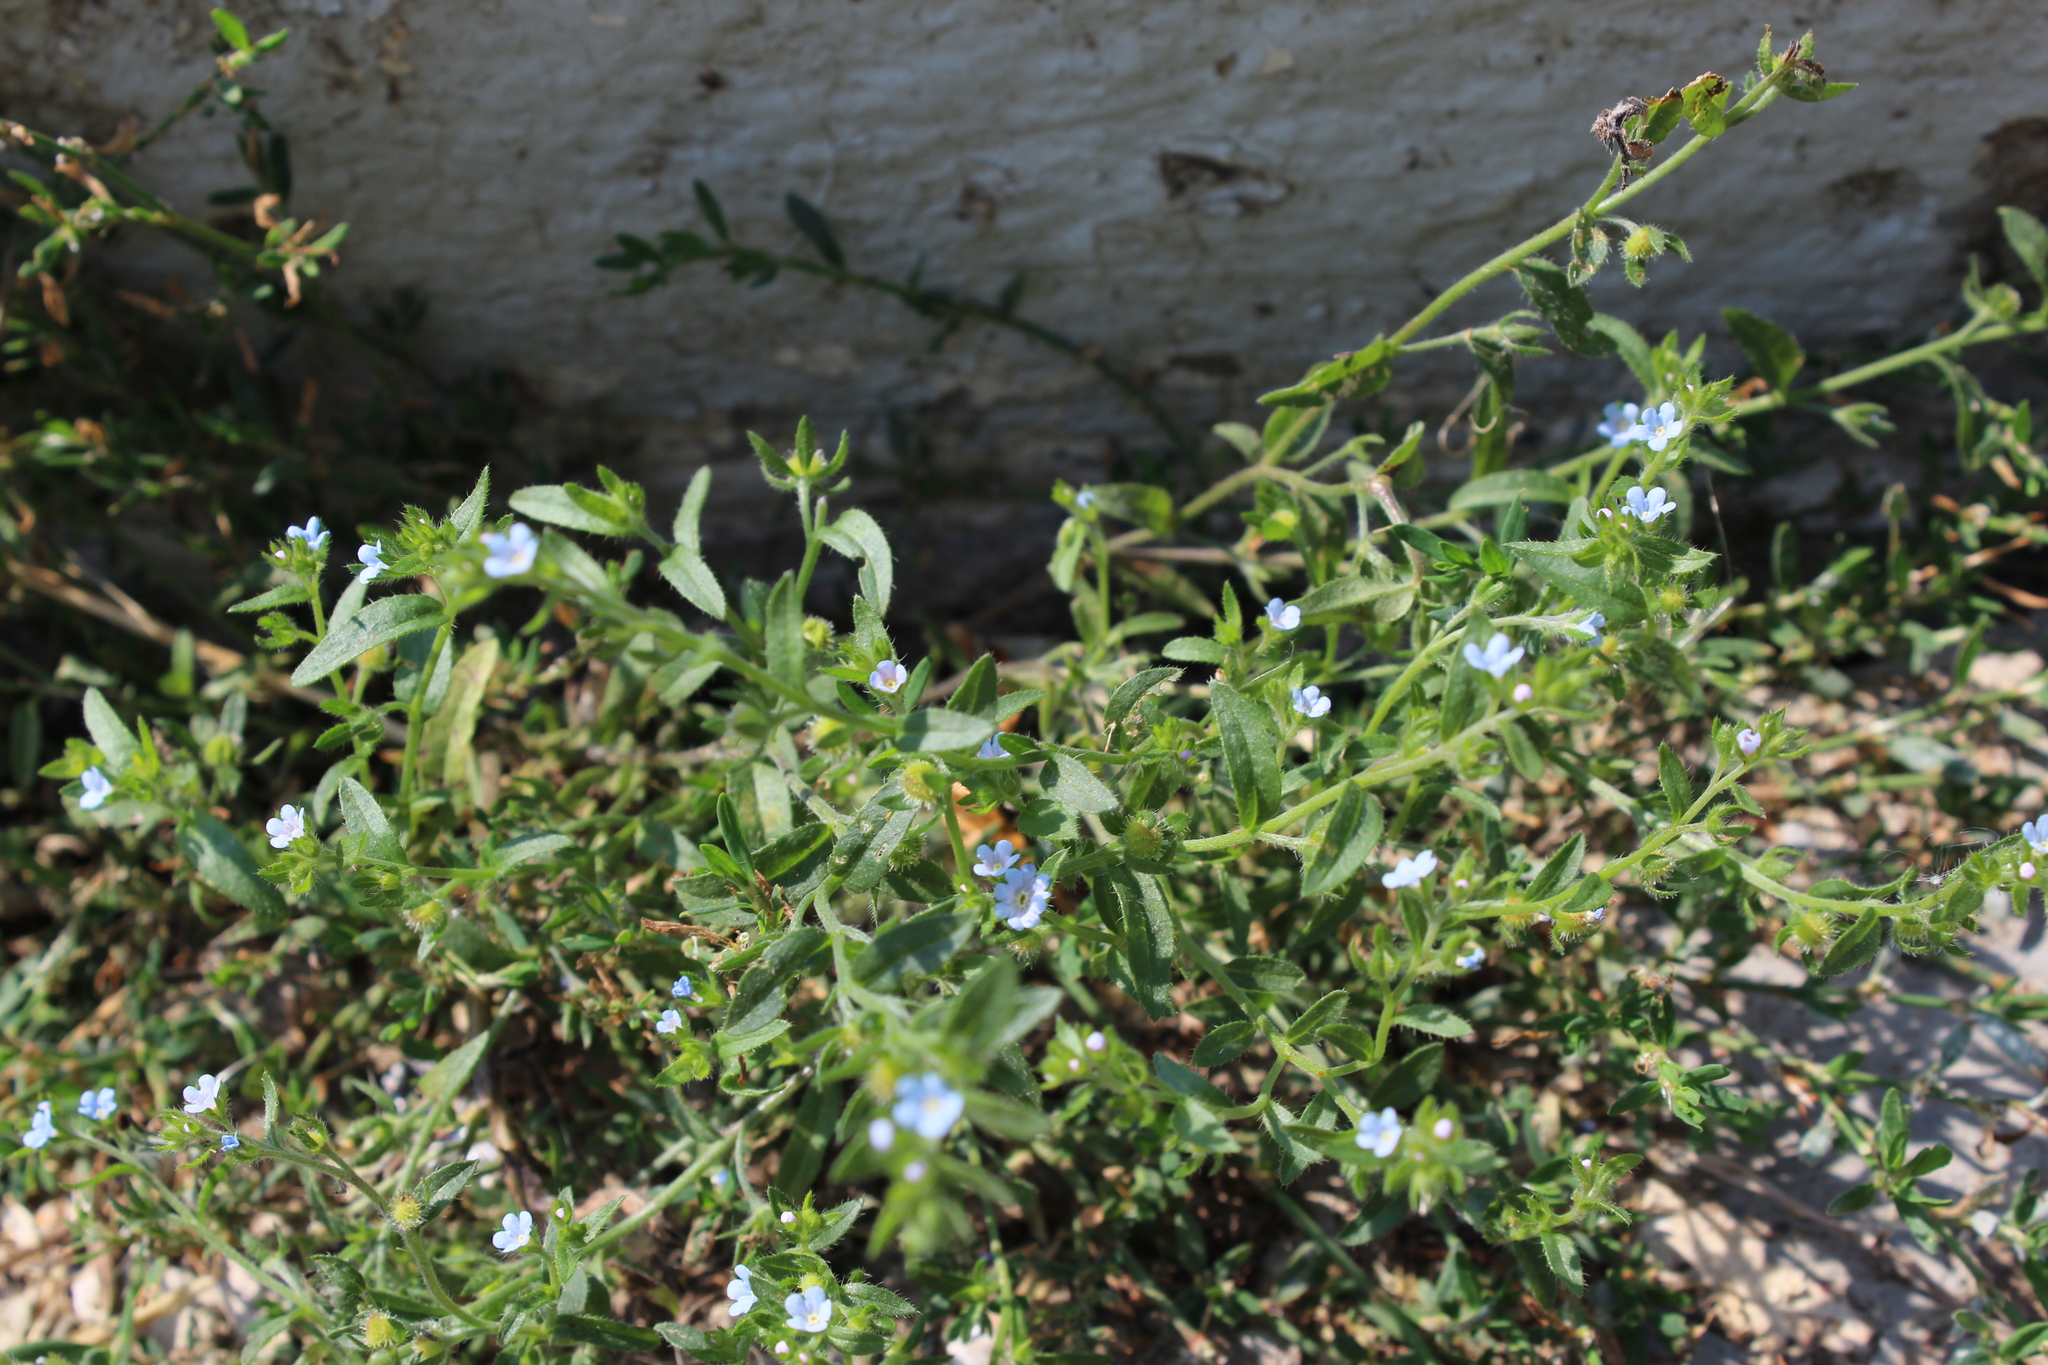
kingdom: Plantae
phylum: Tracheophyta
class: Magnoliopsida
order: Boraginales
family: Boraginaceae
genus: Lappula
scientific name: Lappula squarrosa
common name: European stickseed
